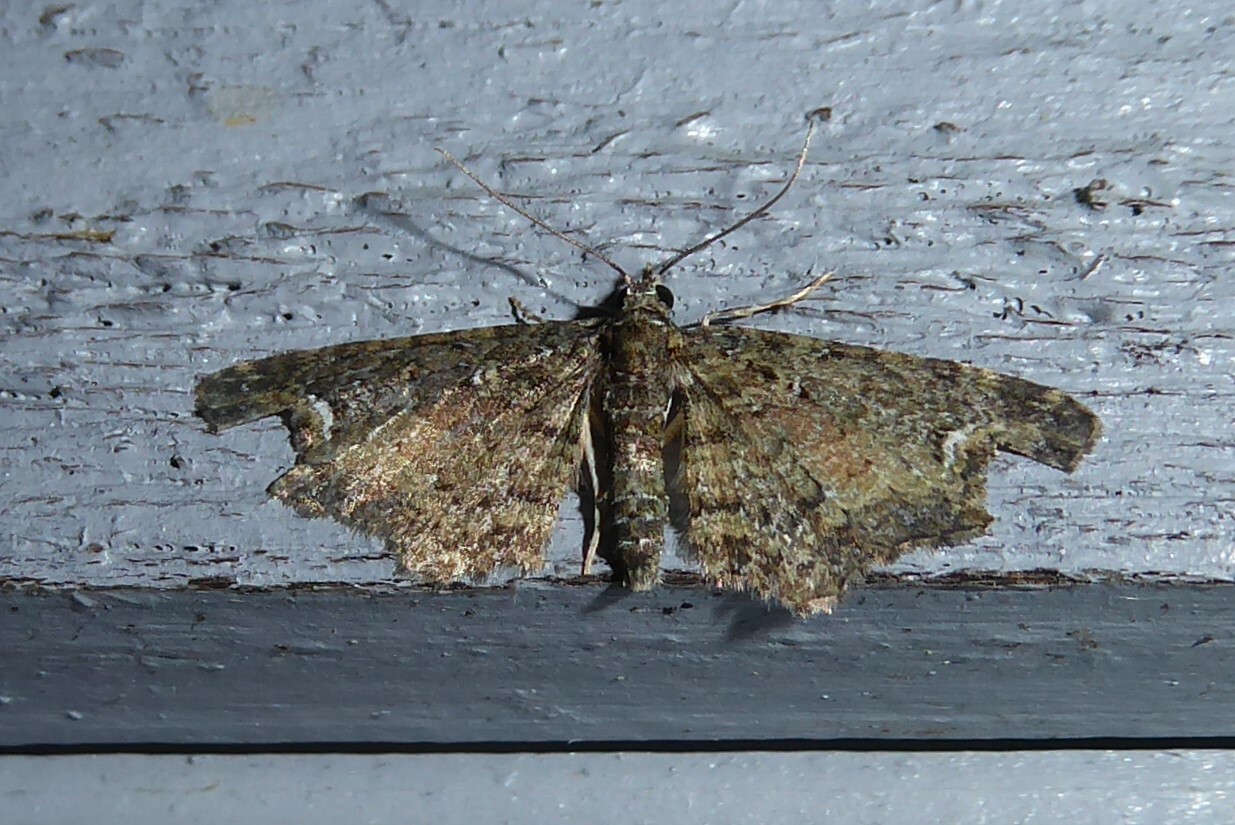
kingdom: Animalia
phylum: Arthropoda
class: Insecta
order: Lepidoptera
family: Geometridae
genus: Pasiphilodes
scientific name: Pasiphilodes testulata
